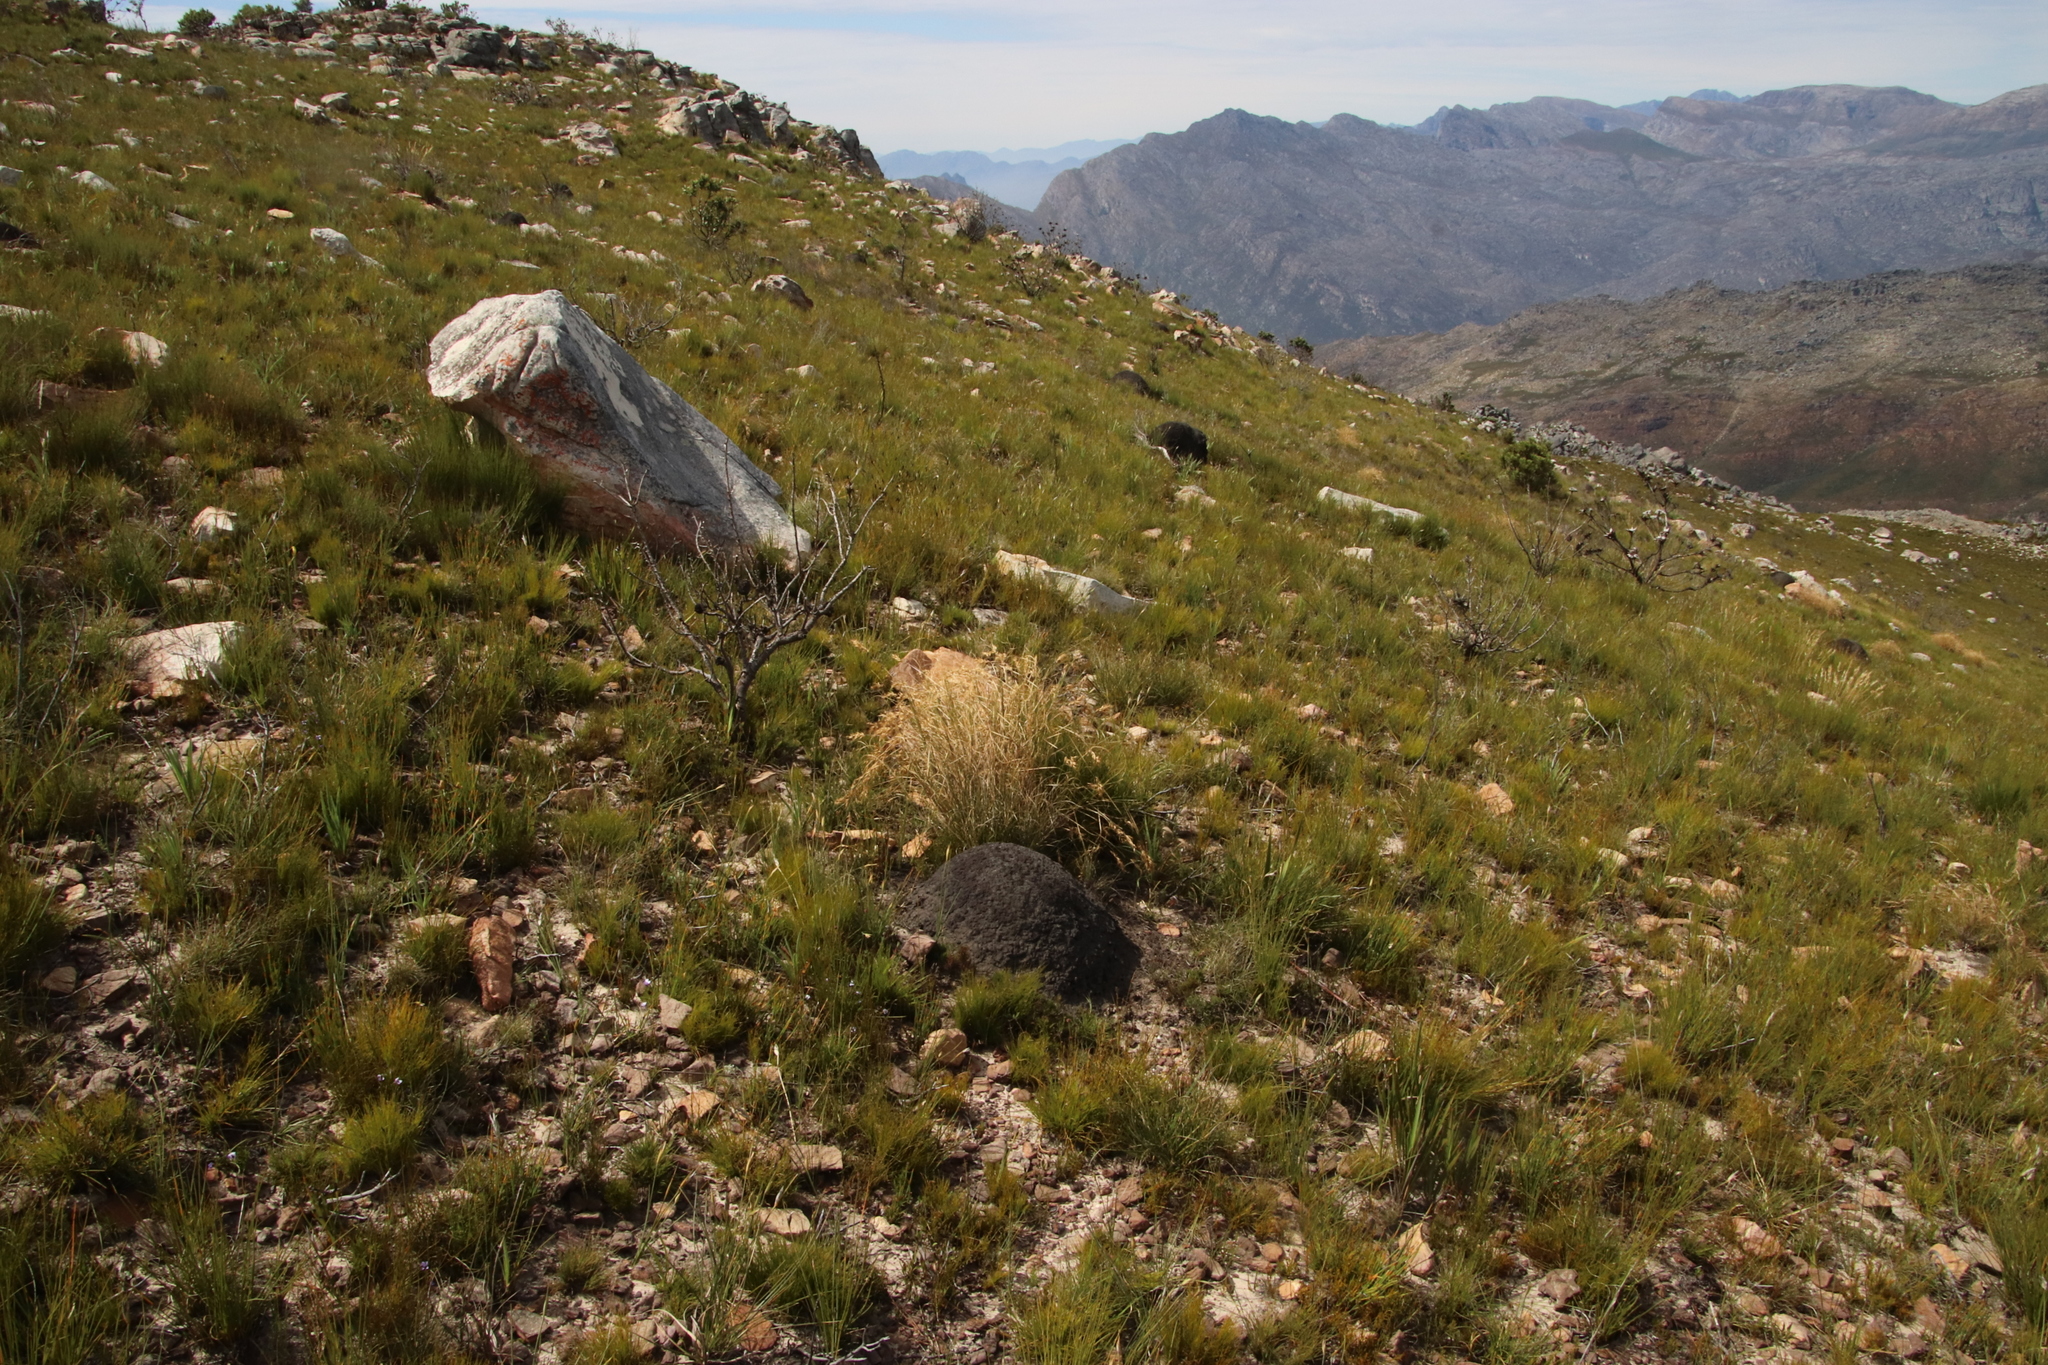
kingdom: Animalia
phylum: Arthropoda
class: Insecta
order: Blattodea
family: Termitidae
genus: Amitermes
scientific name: Amitermes hastatus
